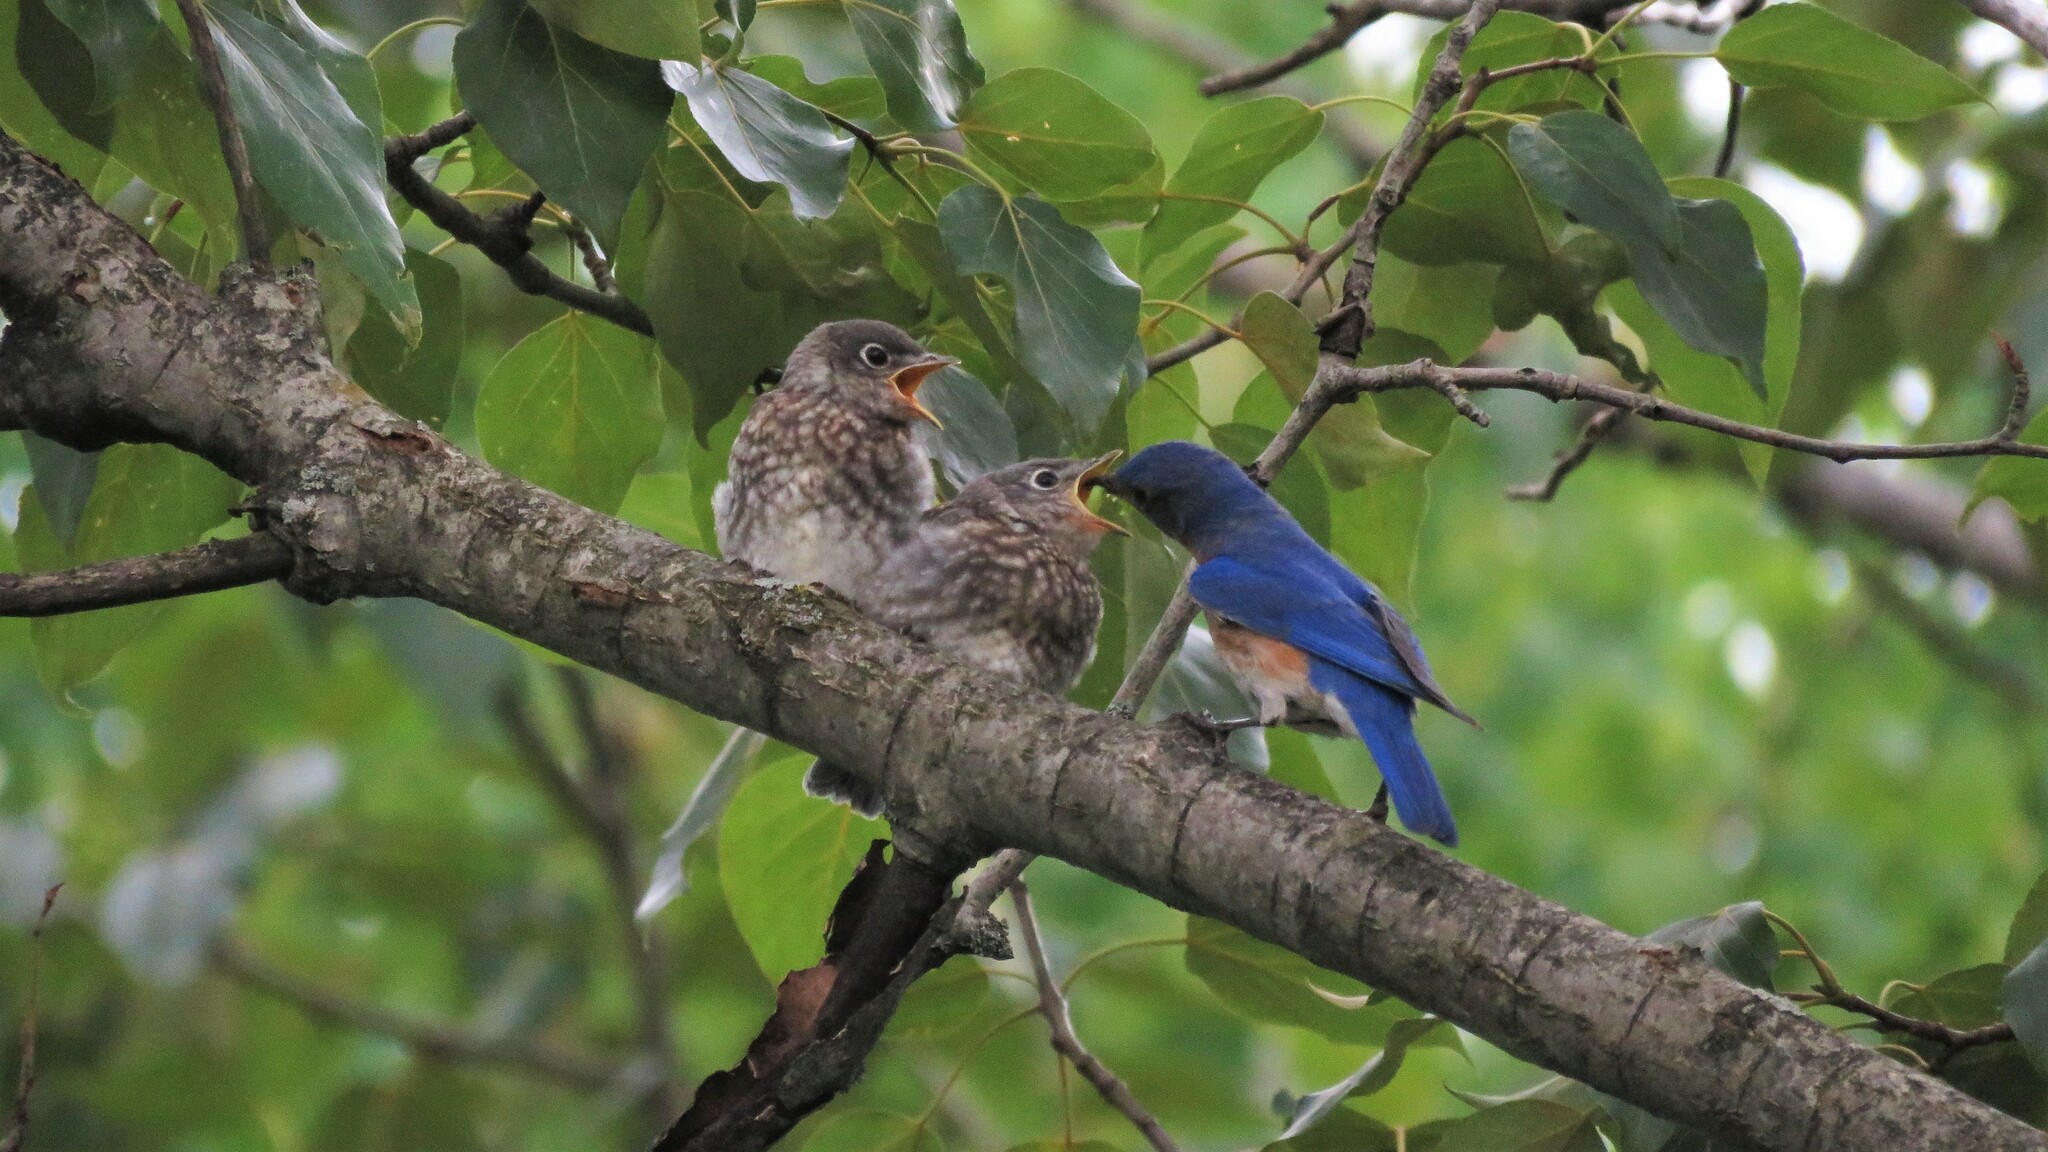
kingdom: Animalia
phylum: Chordata
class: Aves
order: Passeriformes
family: Turdidae
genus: Sialia
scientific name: Sialia sialis
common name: Eastern bluebird
